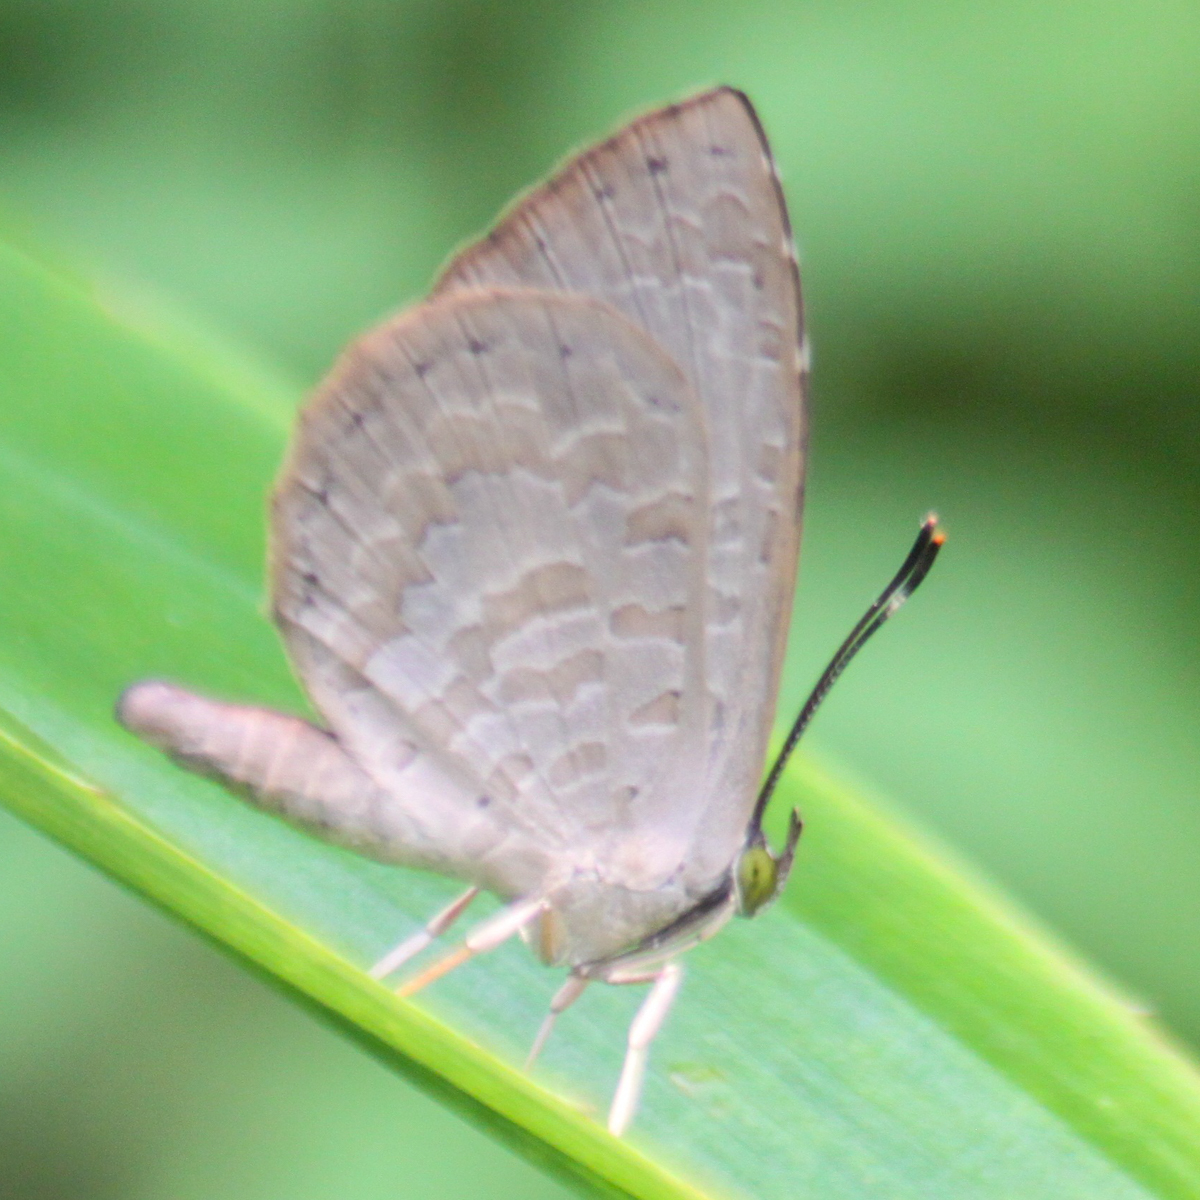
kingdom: Animalia
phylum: Arthropoda
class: Insecta
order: Lepidoptera
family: Lycaenidae
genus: Miletus
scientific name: Miletus chinensis
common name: Common brownie
